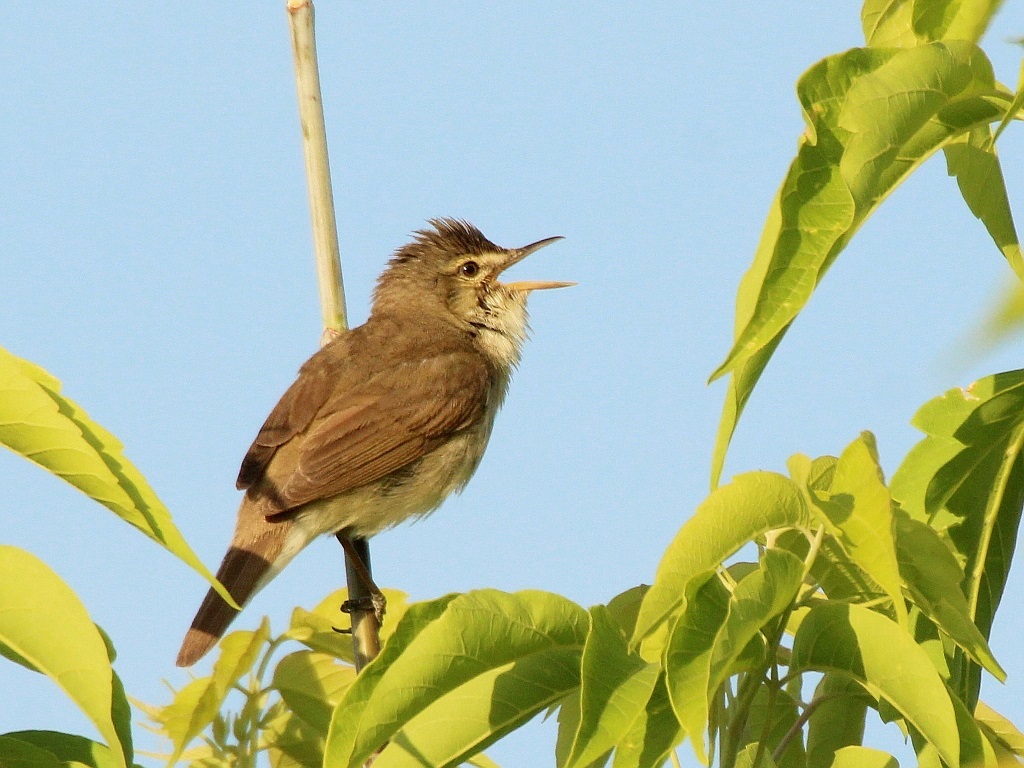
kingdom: Animalia
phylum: Chordata
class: Aves
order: Passeriformes
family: Acrocephalidae
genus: Acrocephalus
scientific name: Acrocephalus dumetorum
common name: Blyth's reed warbler
